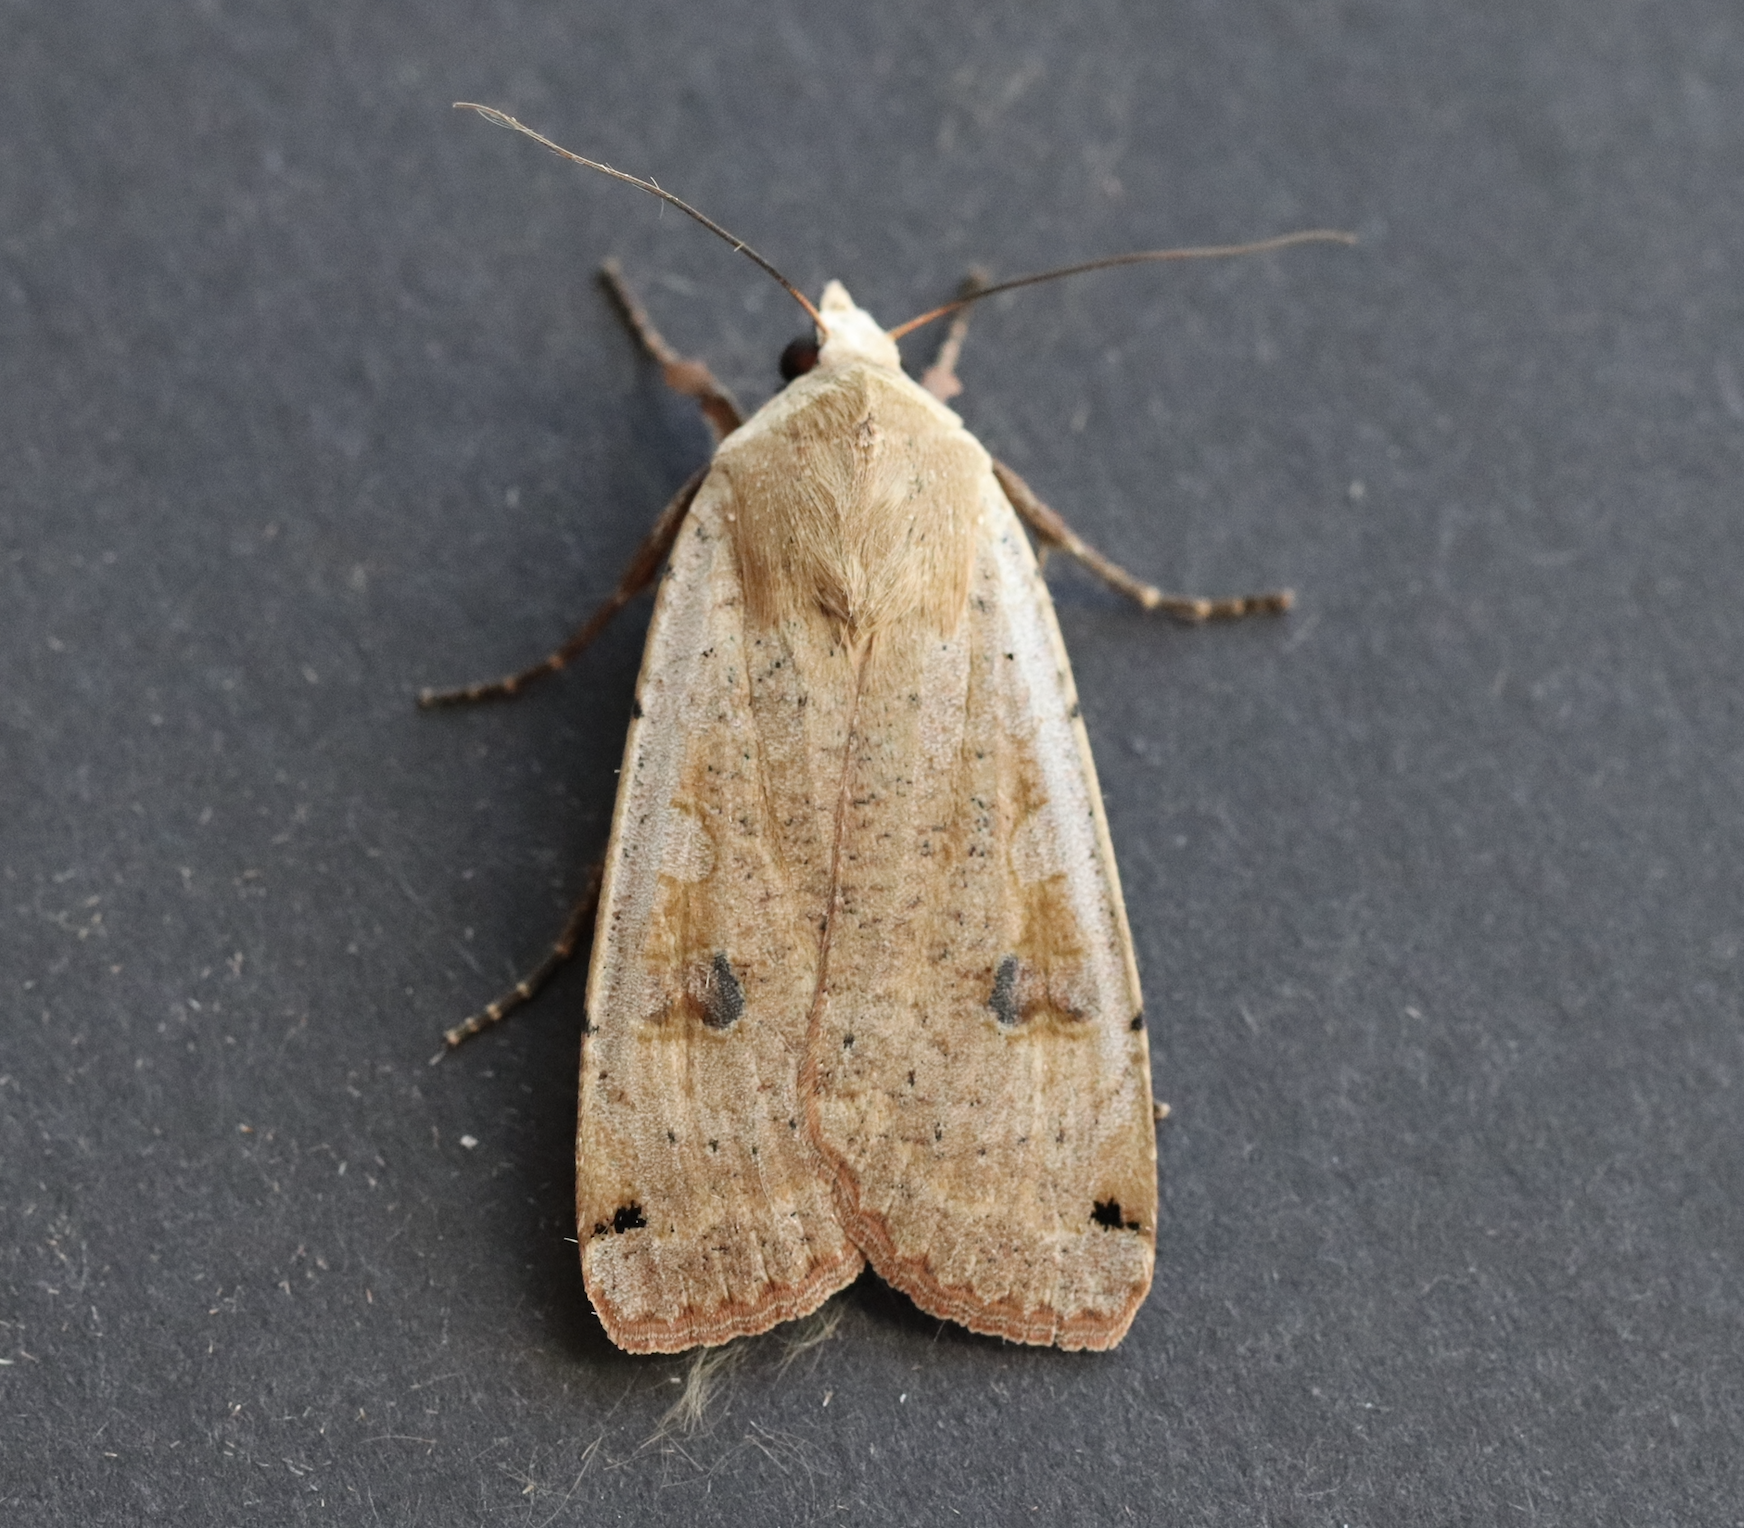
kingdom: Animalia
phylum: Arthropoda
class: Insecta
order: Lepidoptera
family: Noctuidae
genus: Noctua
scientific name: Noctua pronuba
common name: Large yellow underwing
